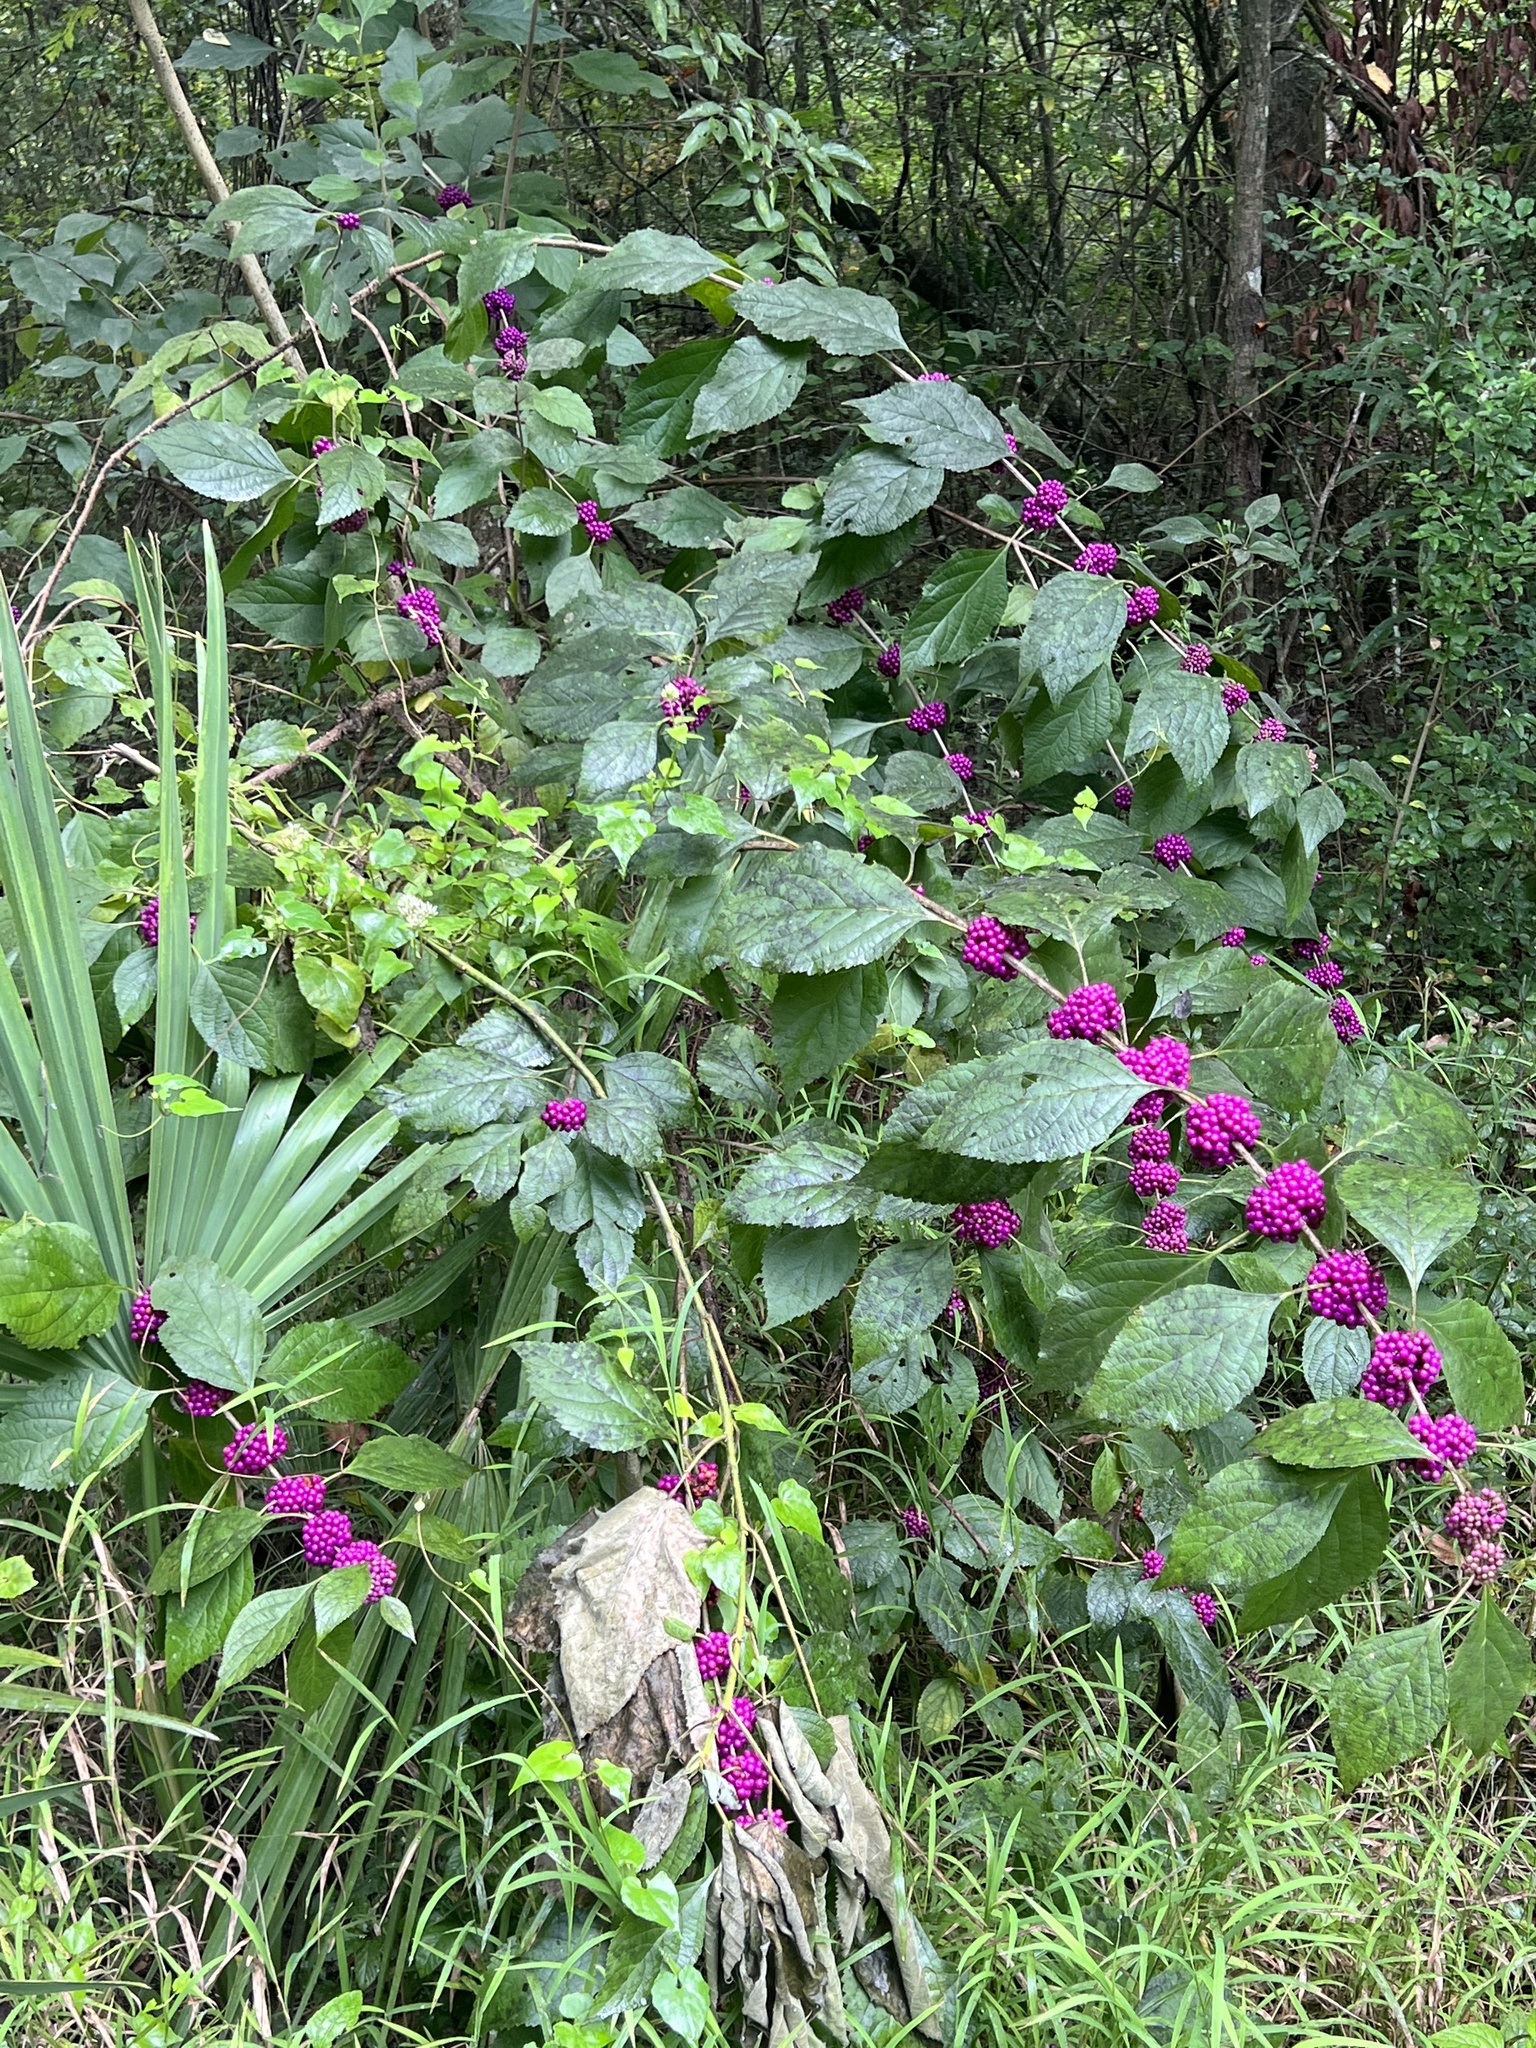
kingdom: Plantae
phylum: Tracheophyta
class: Magnoliopsida
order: Lamiales
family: Lamiaceae
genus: Callicarpa
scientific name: Callicarpa americana
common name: American beautyberry
